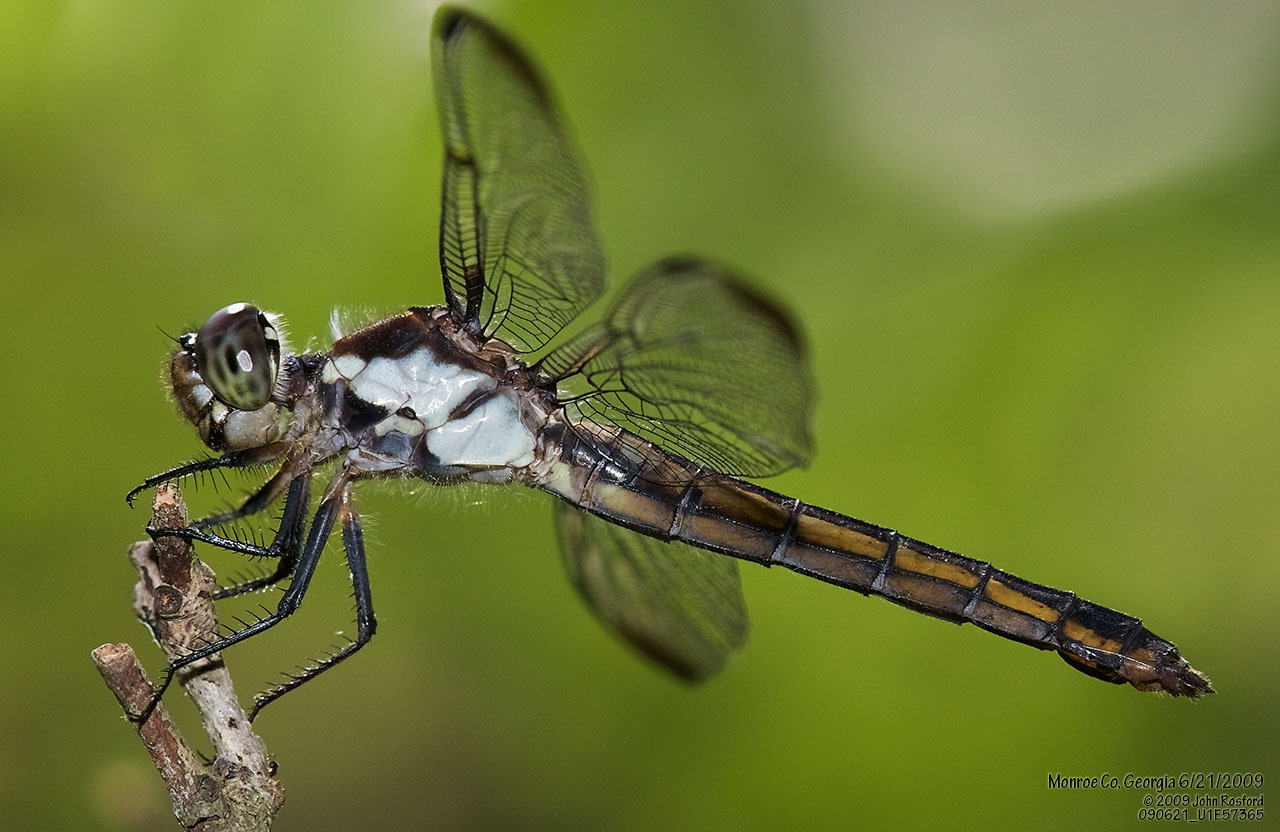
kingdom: Animalia
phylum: Arthropoda
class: Insecta
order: Odonata
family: Libellulidae
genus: Libellula
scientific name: Libellula incesta
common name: Slaty skimmer
